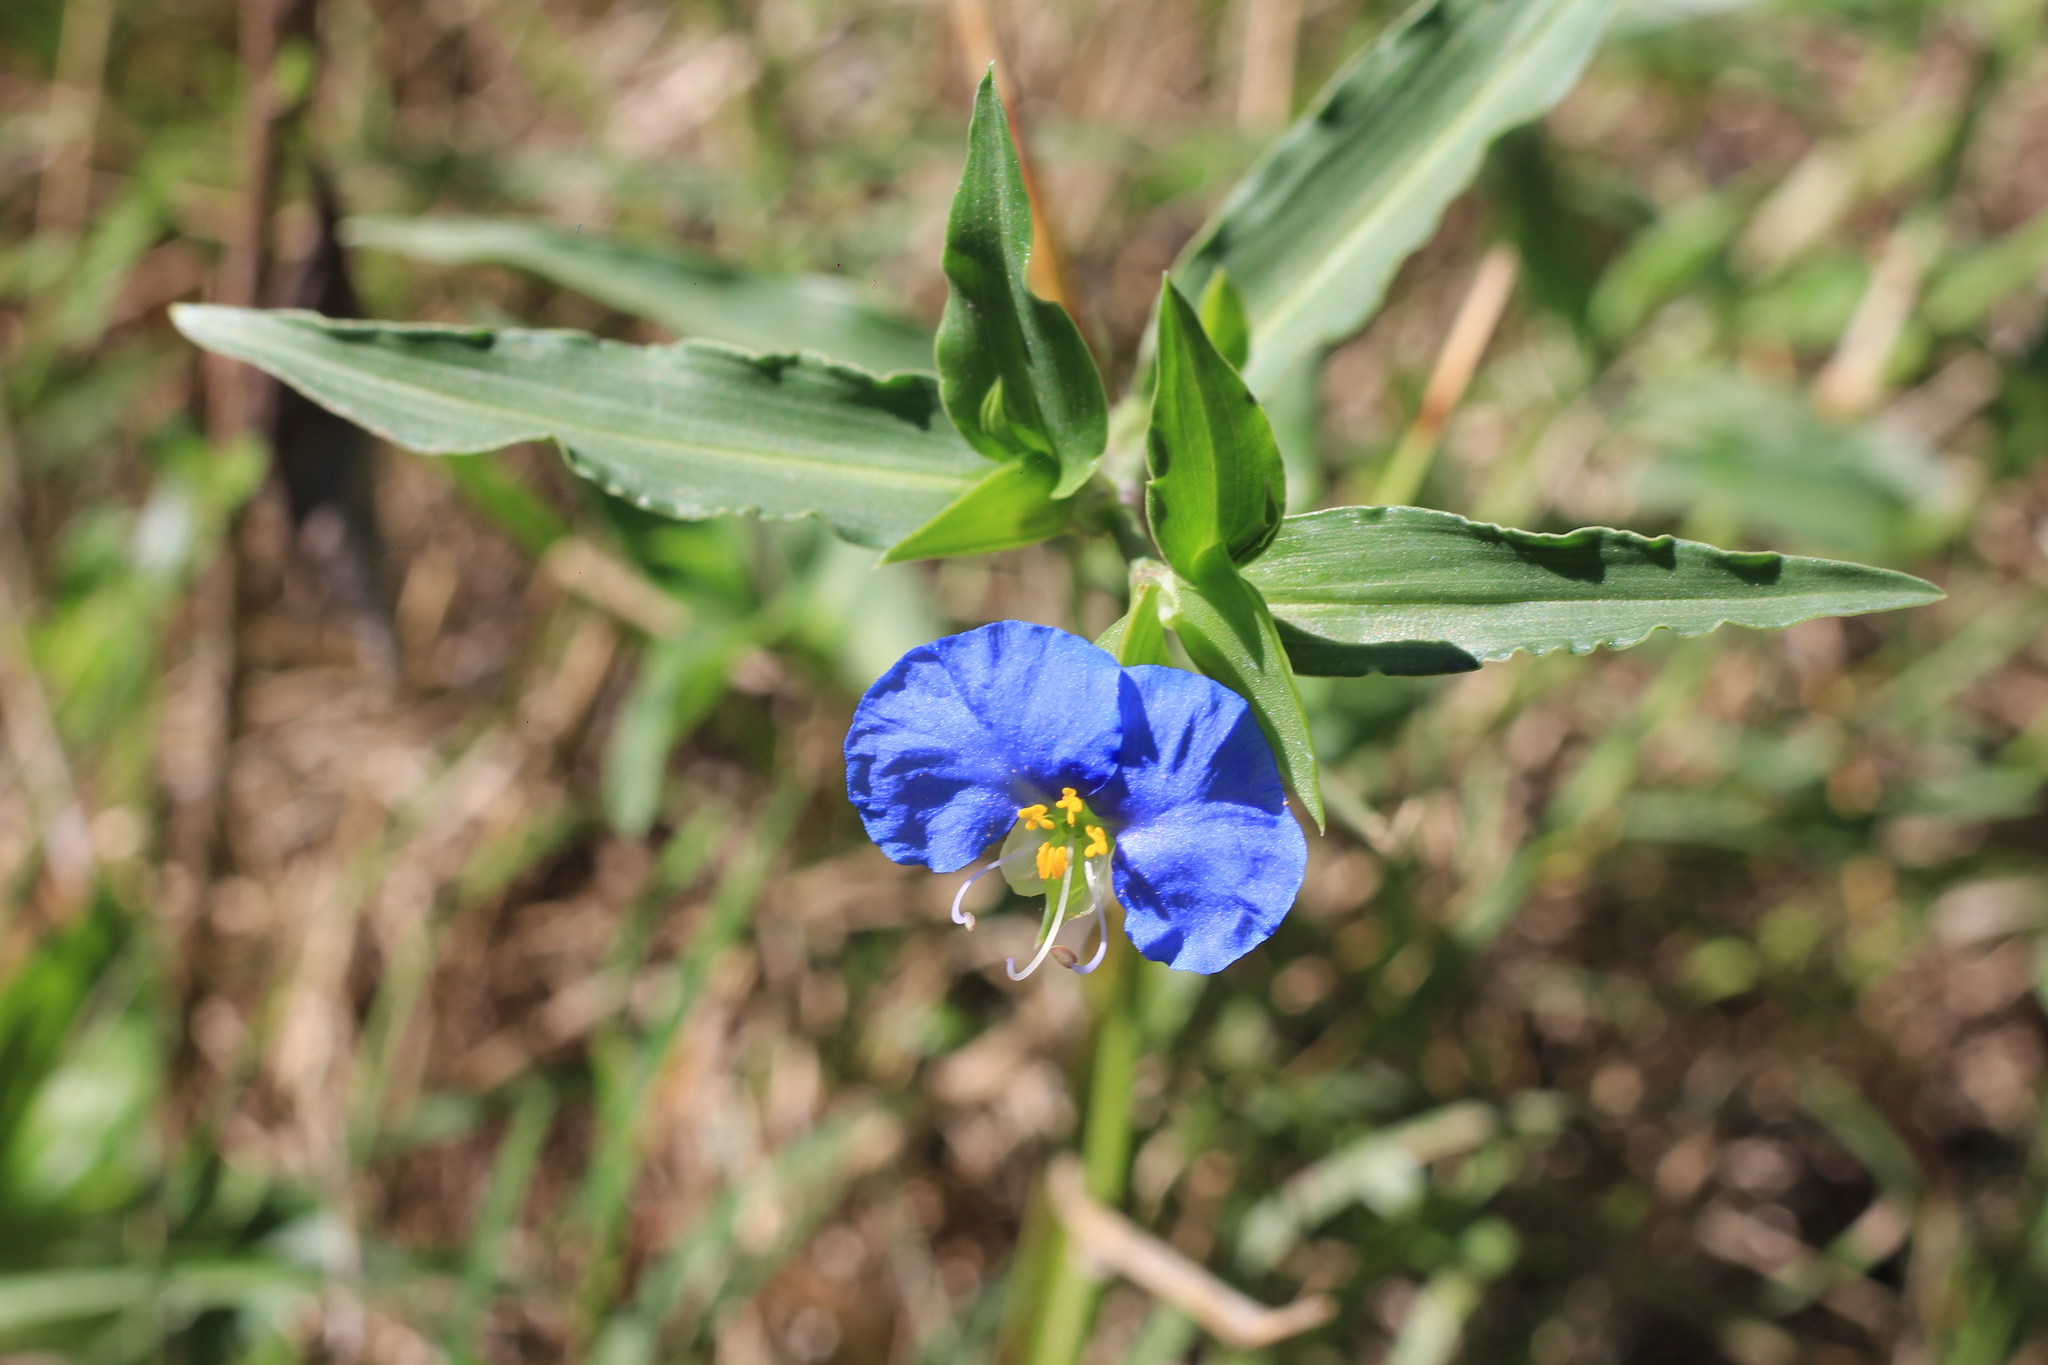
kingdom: Plantae
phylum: Tracheophyta
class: Liliopsida
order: Commelinales
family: Commelinaceae
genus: Commelina
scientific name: Commelina erecta
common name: Blousel blommetjie
